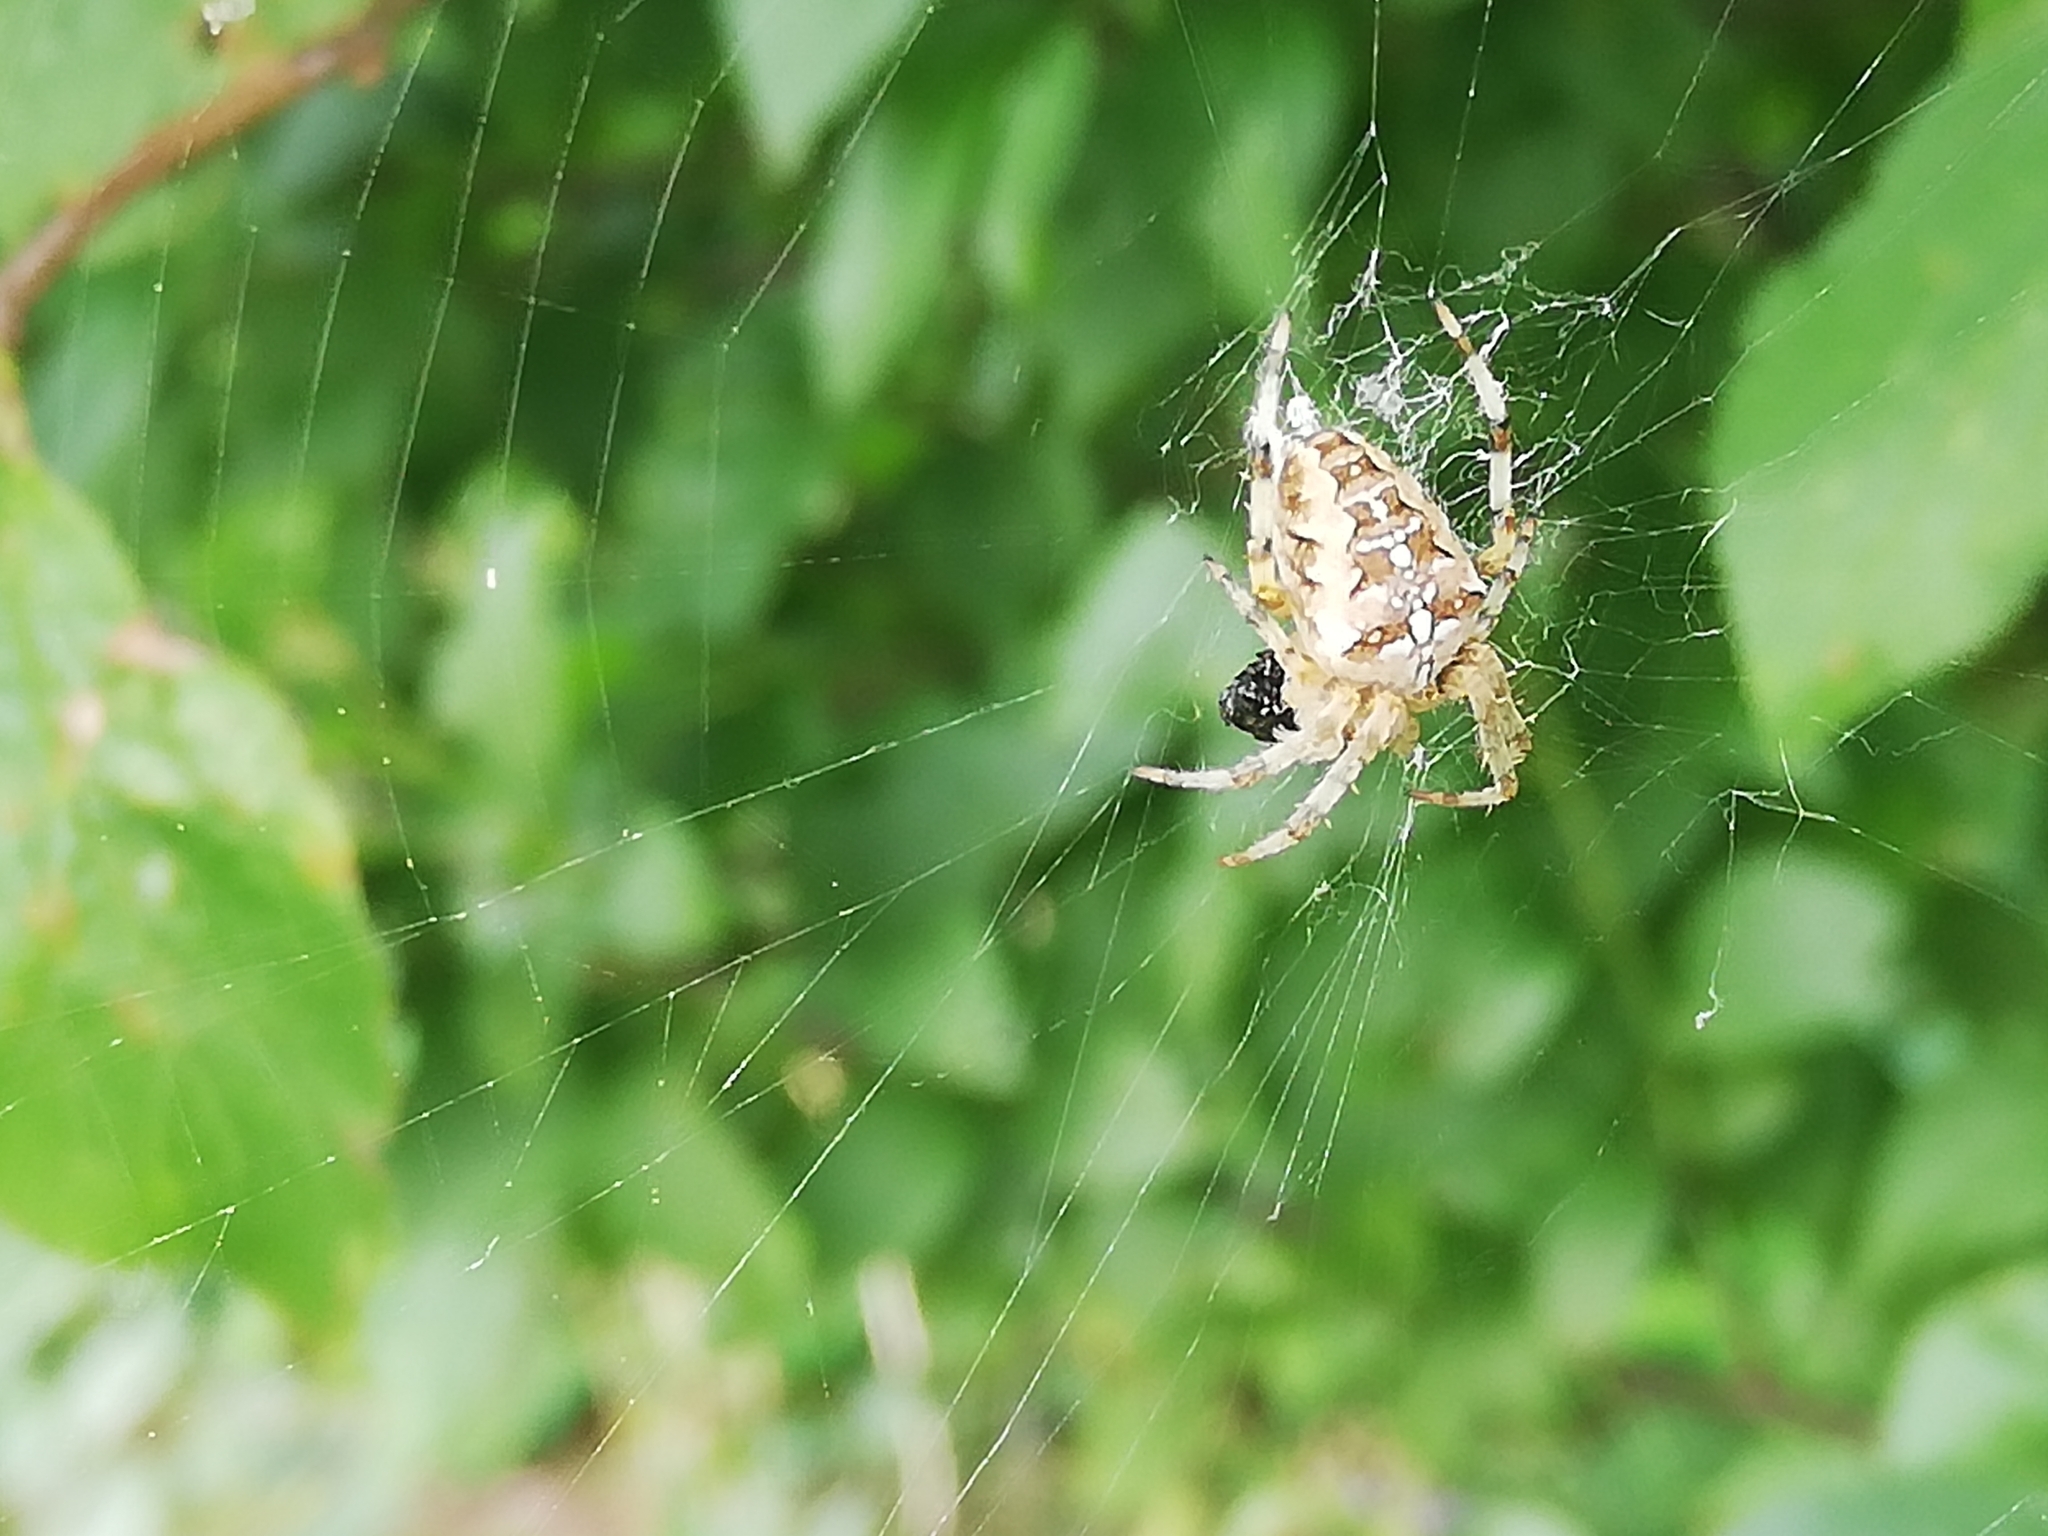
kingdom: Animalia
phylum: Arthropoda
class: Arachnida
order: Araneae
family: Araneidae
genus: Araneus
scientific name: Araneus diadematus
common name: Cross orbweaver
